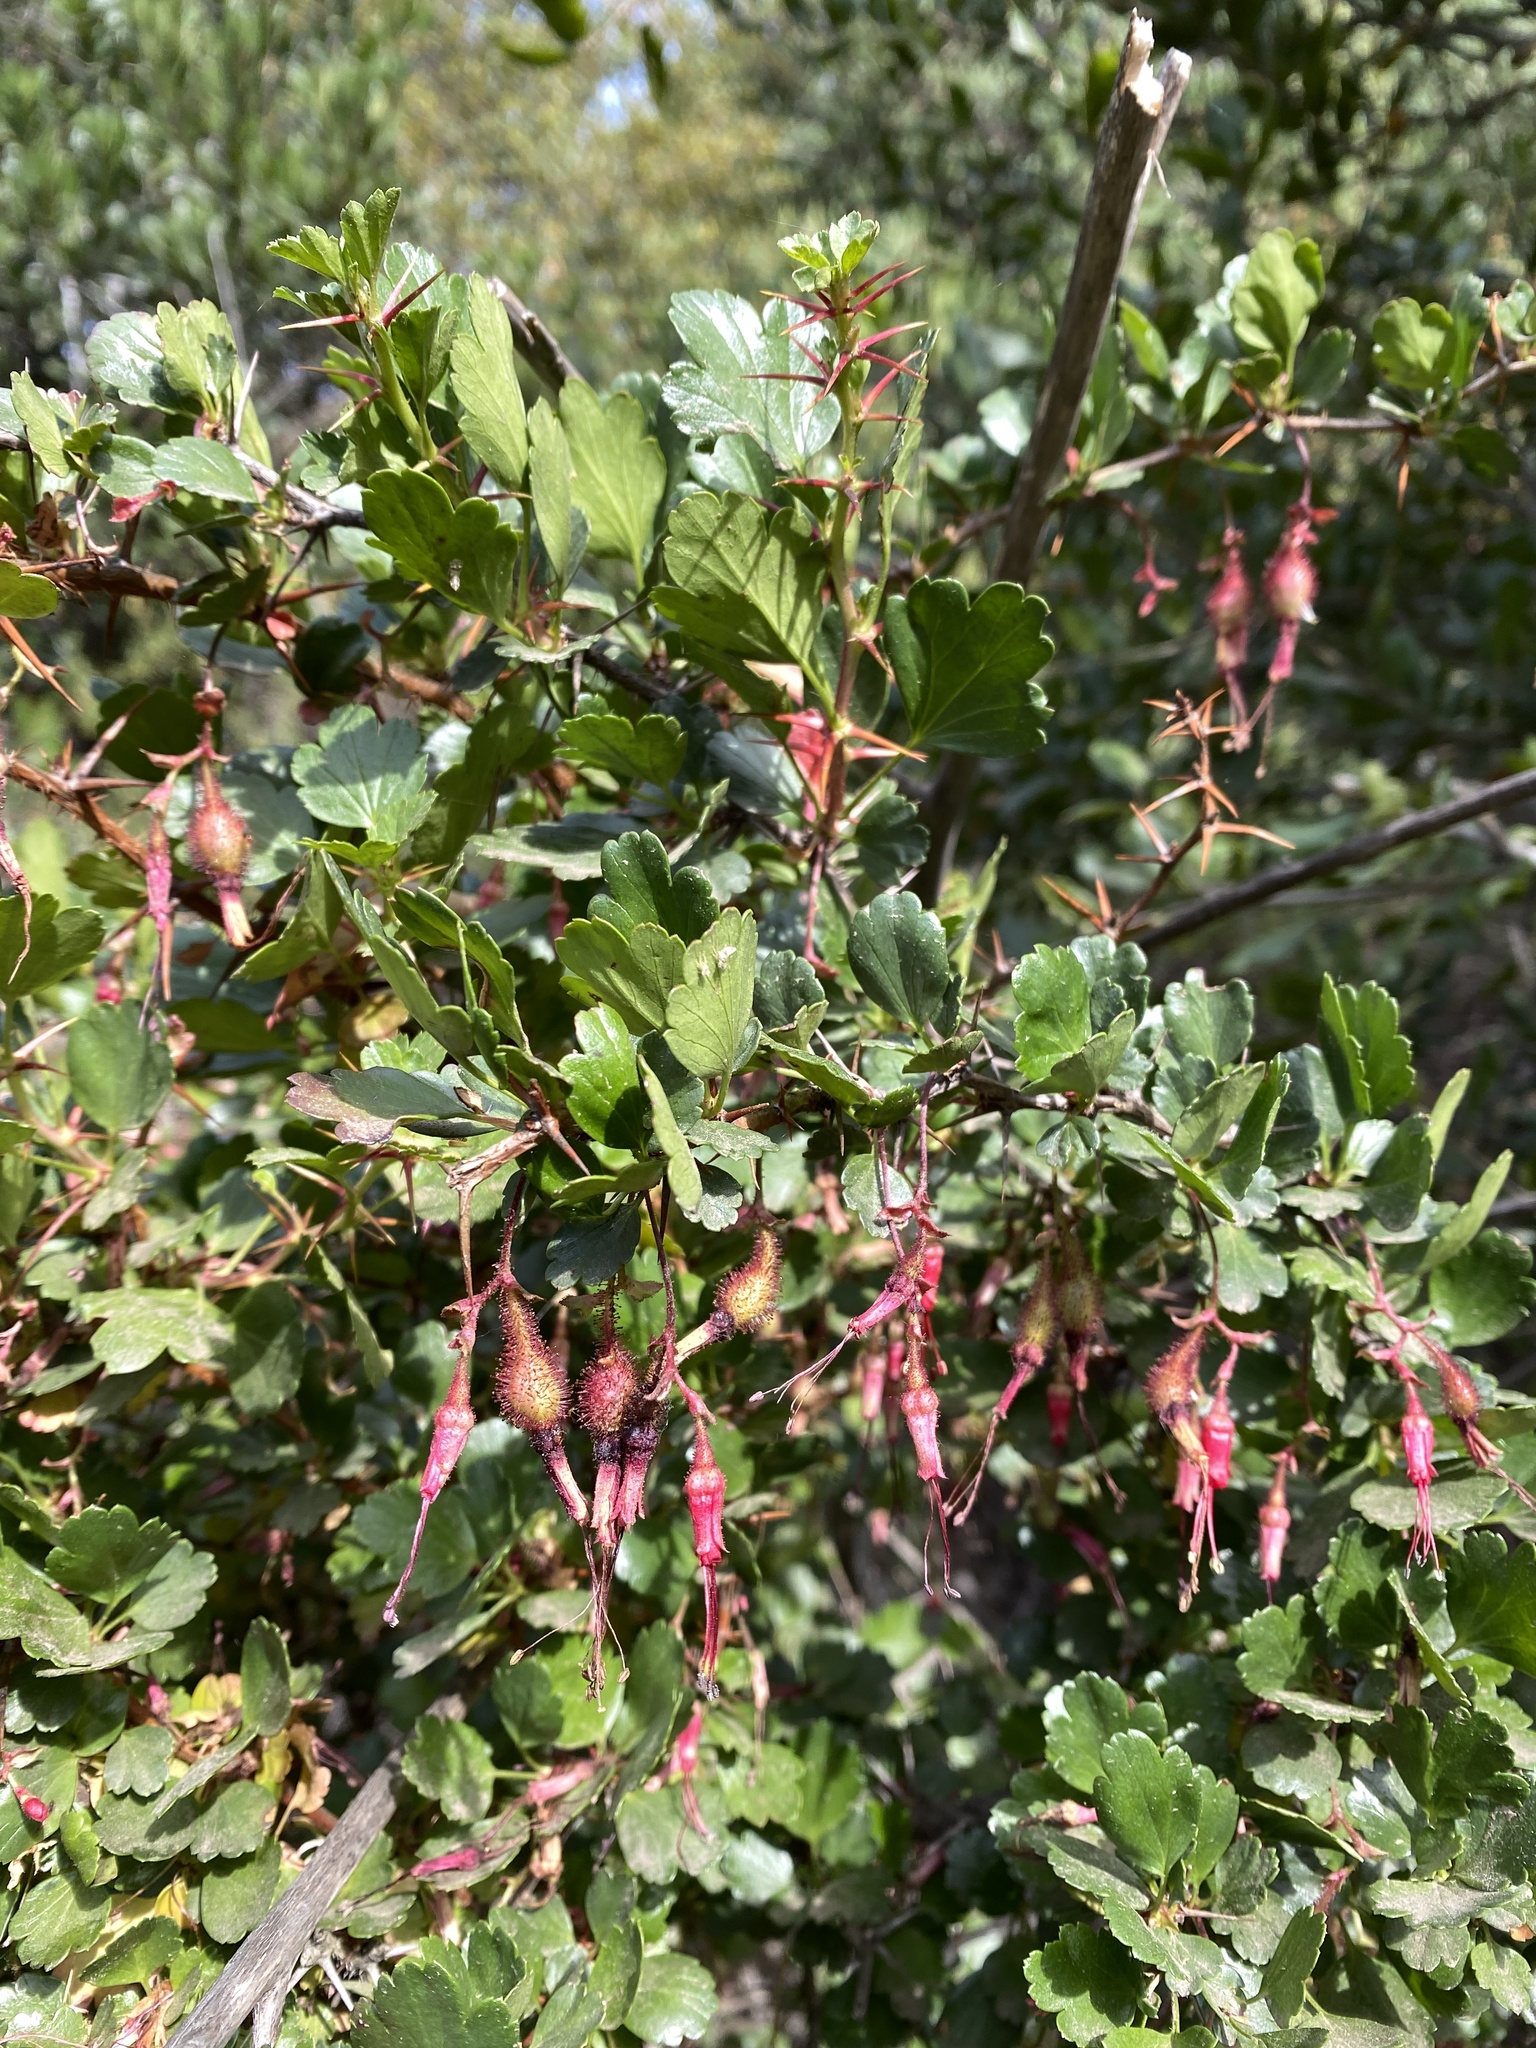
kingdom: Plantae
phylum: Tracheophyta
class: Magnoliopsida
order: Saxifragales
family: Grossulariaceae
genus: Ribes
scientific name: Ribes speciosum
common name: Fuchsia-flower gooseberry
